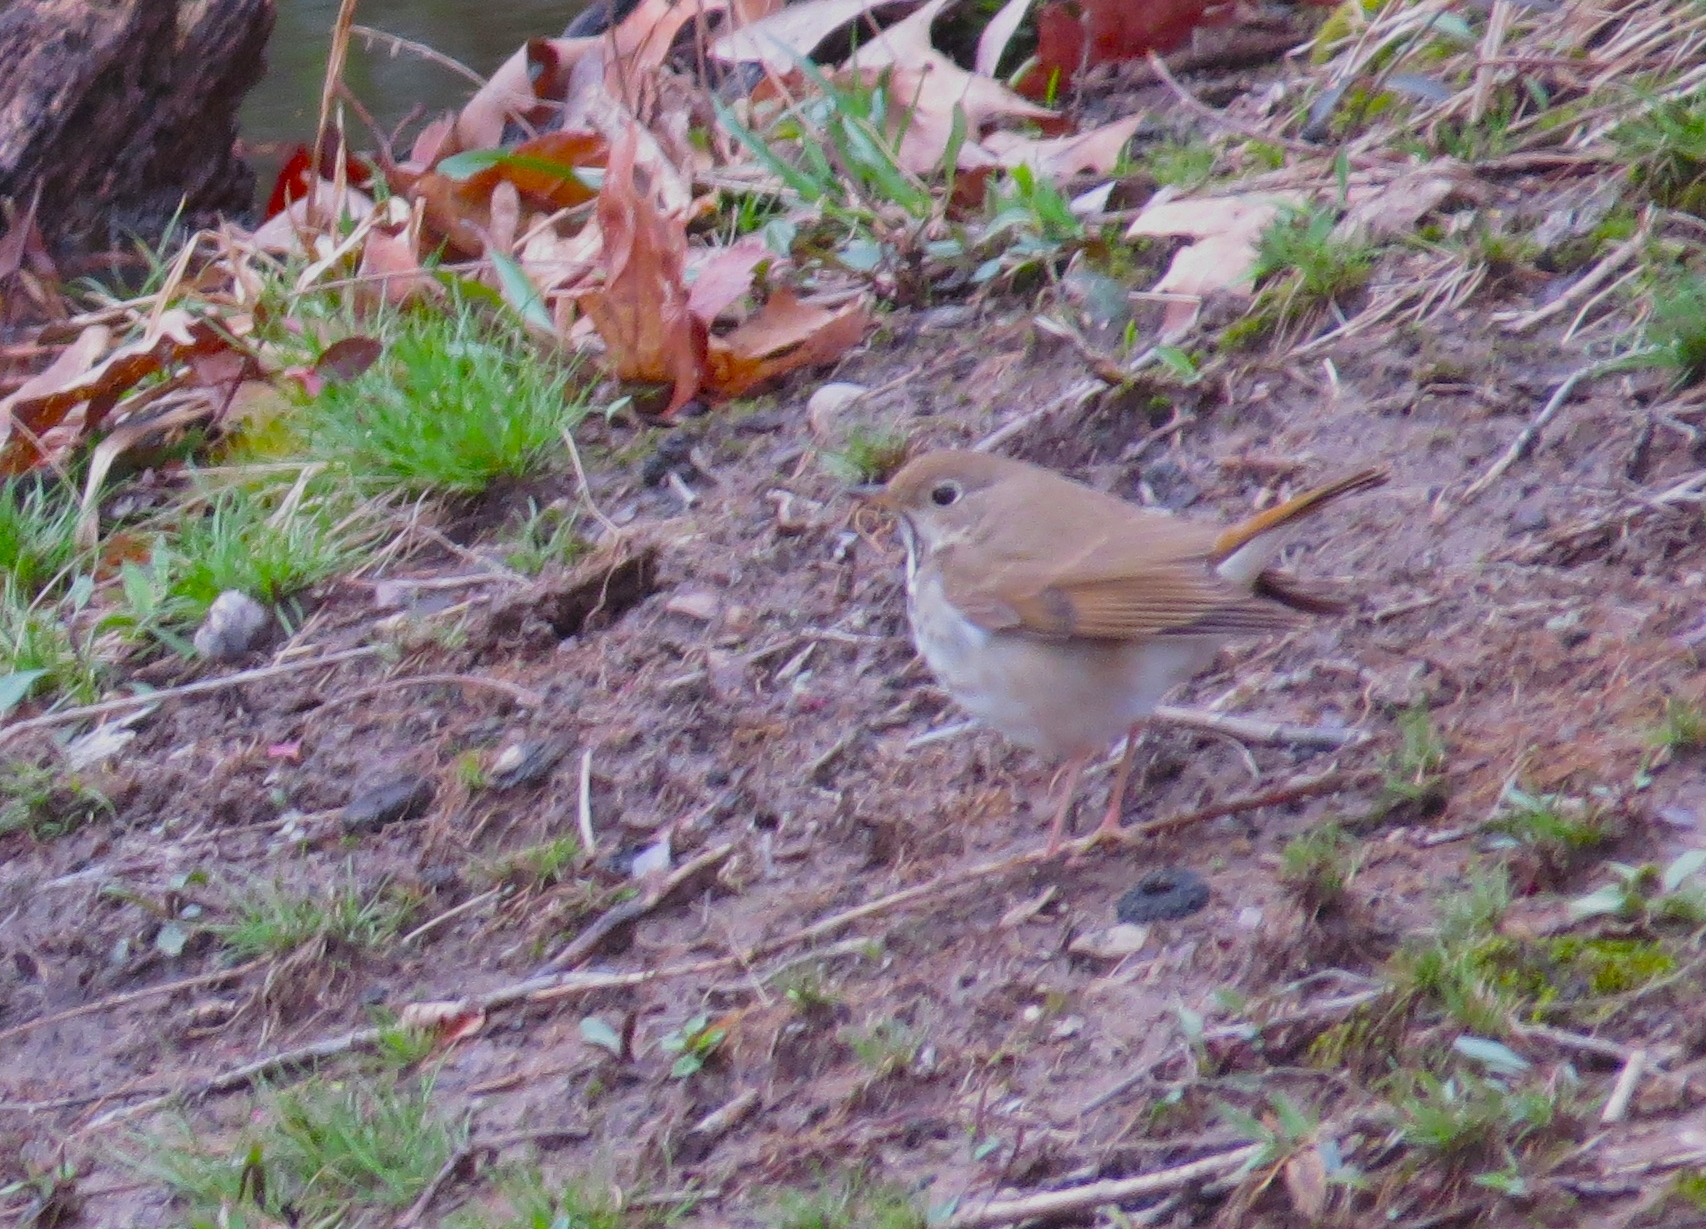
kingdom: Animalia
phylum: Chordata
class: Aves
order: Passeriformes
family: Turdidae
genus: Catharus
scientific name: Catharus guttatus
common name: Hermit thrush
